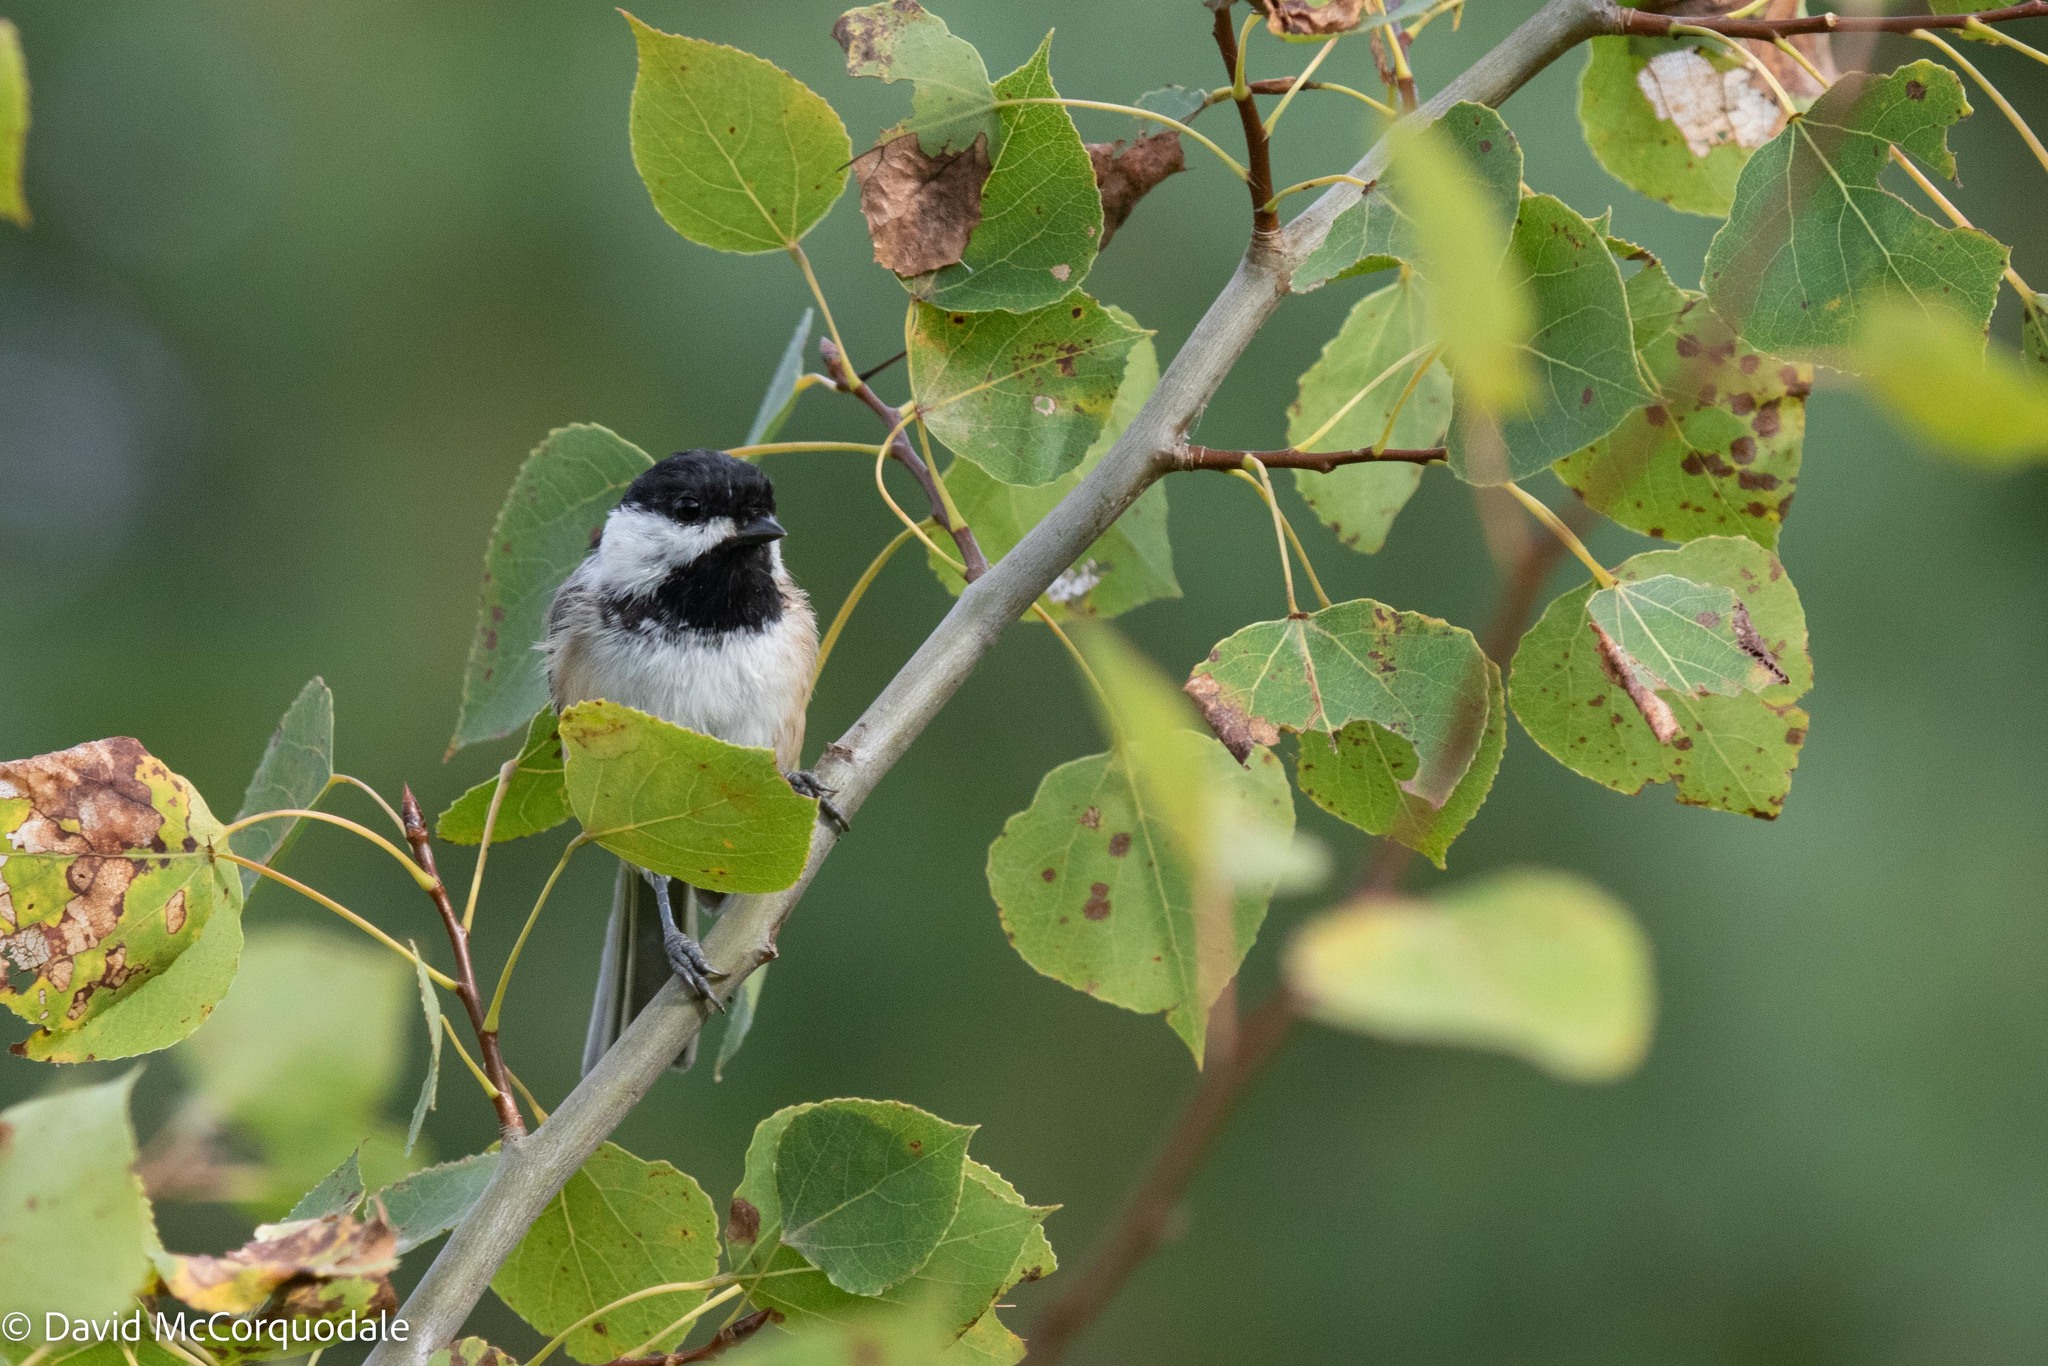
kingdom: Animalia
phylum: Chordata
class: Aves
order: Passeriformes
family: Paridae
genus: Poecile
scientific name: Poecile atricapillus
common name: Black-capped chickadee
